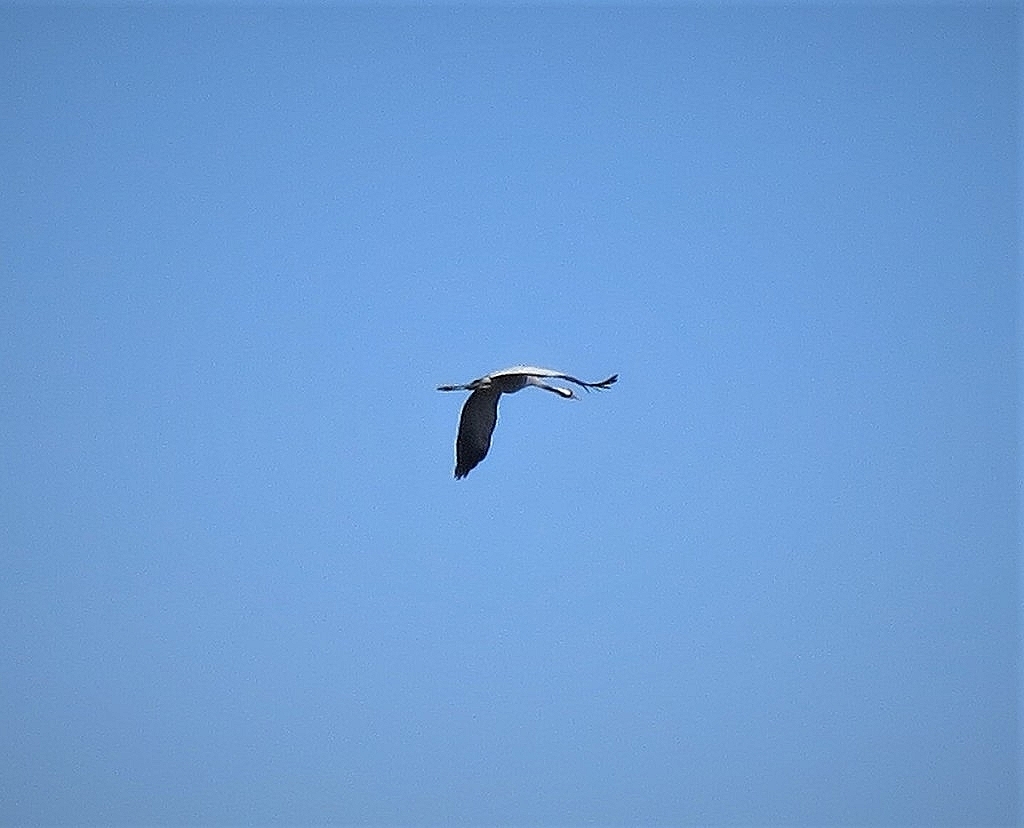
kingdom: Animalia
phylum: Chordata
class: Aves
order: Gruiformes
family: Gruidae
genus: Grus
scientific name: Grus grus
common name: Common crane
